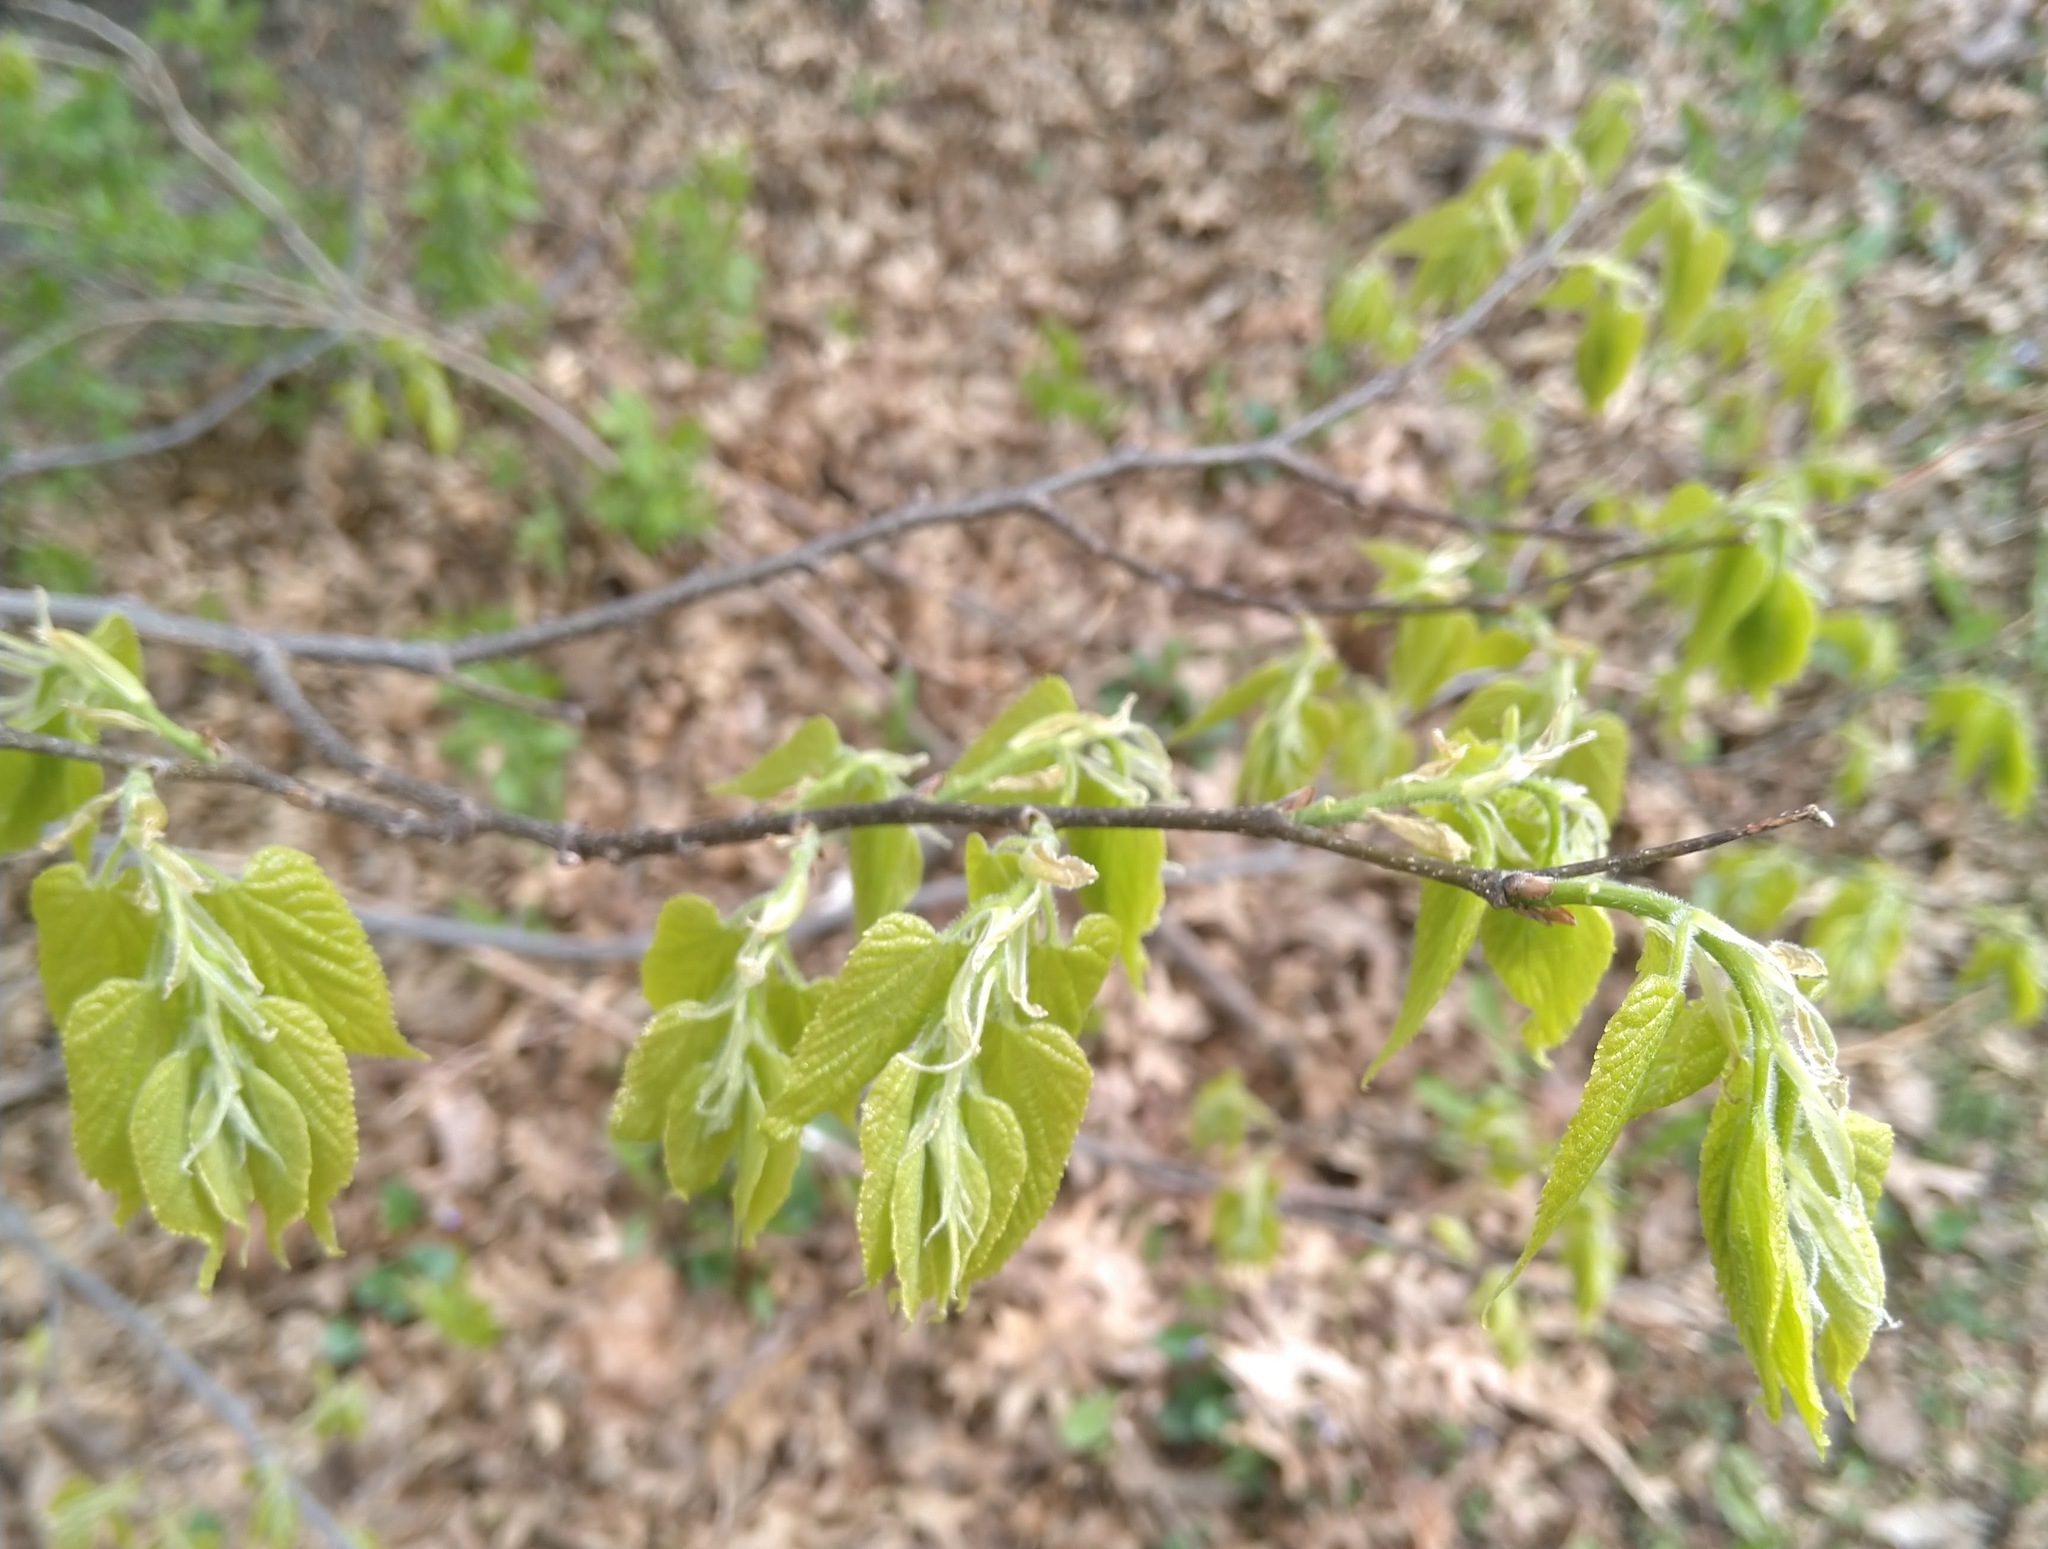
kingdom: Plantae
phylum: Tracheophyta
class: Magnoliopsida
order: Rosales
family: Cannabaceae
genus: Celtis
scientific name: Celtis occidentalis
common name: Common hackberry
